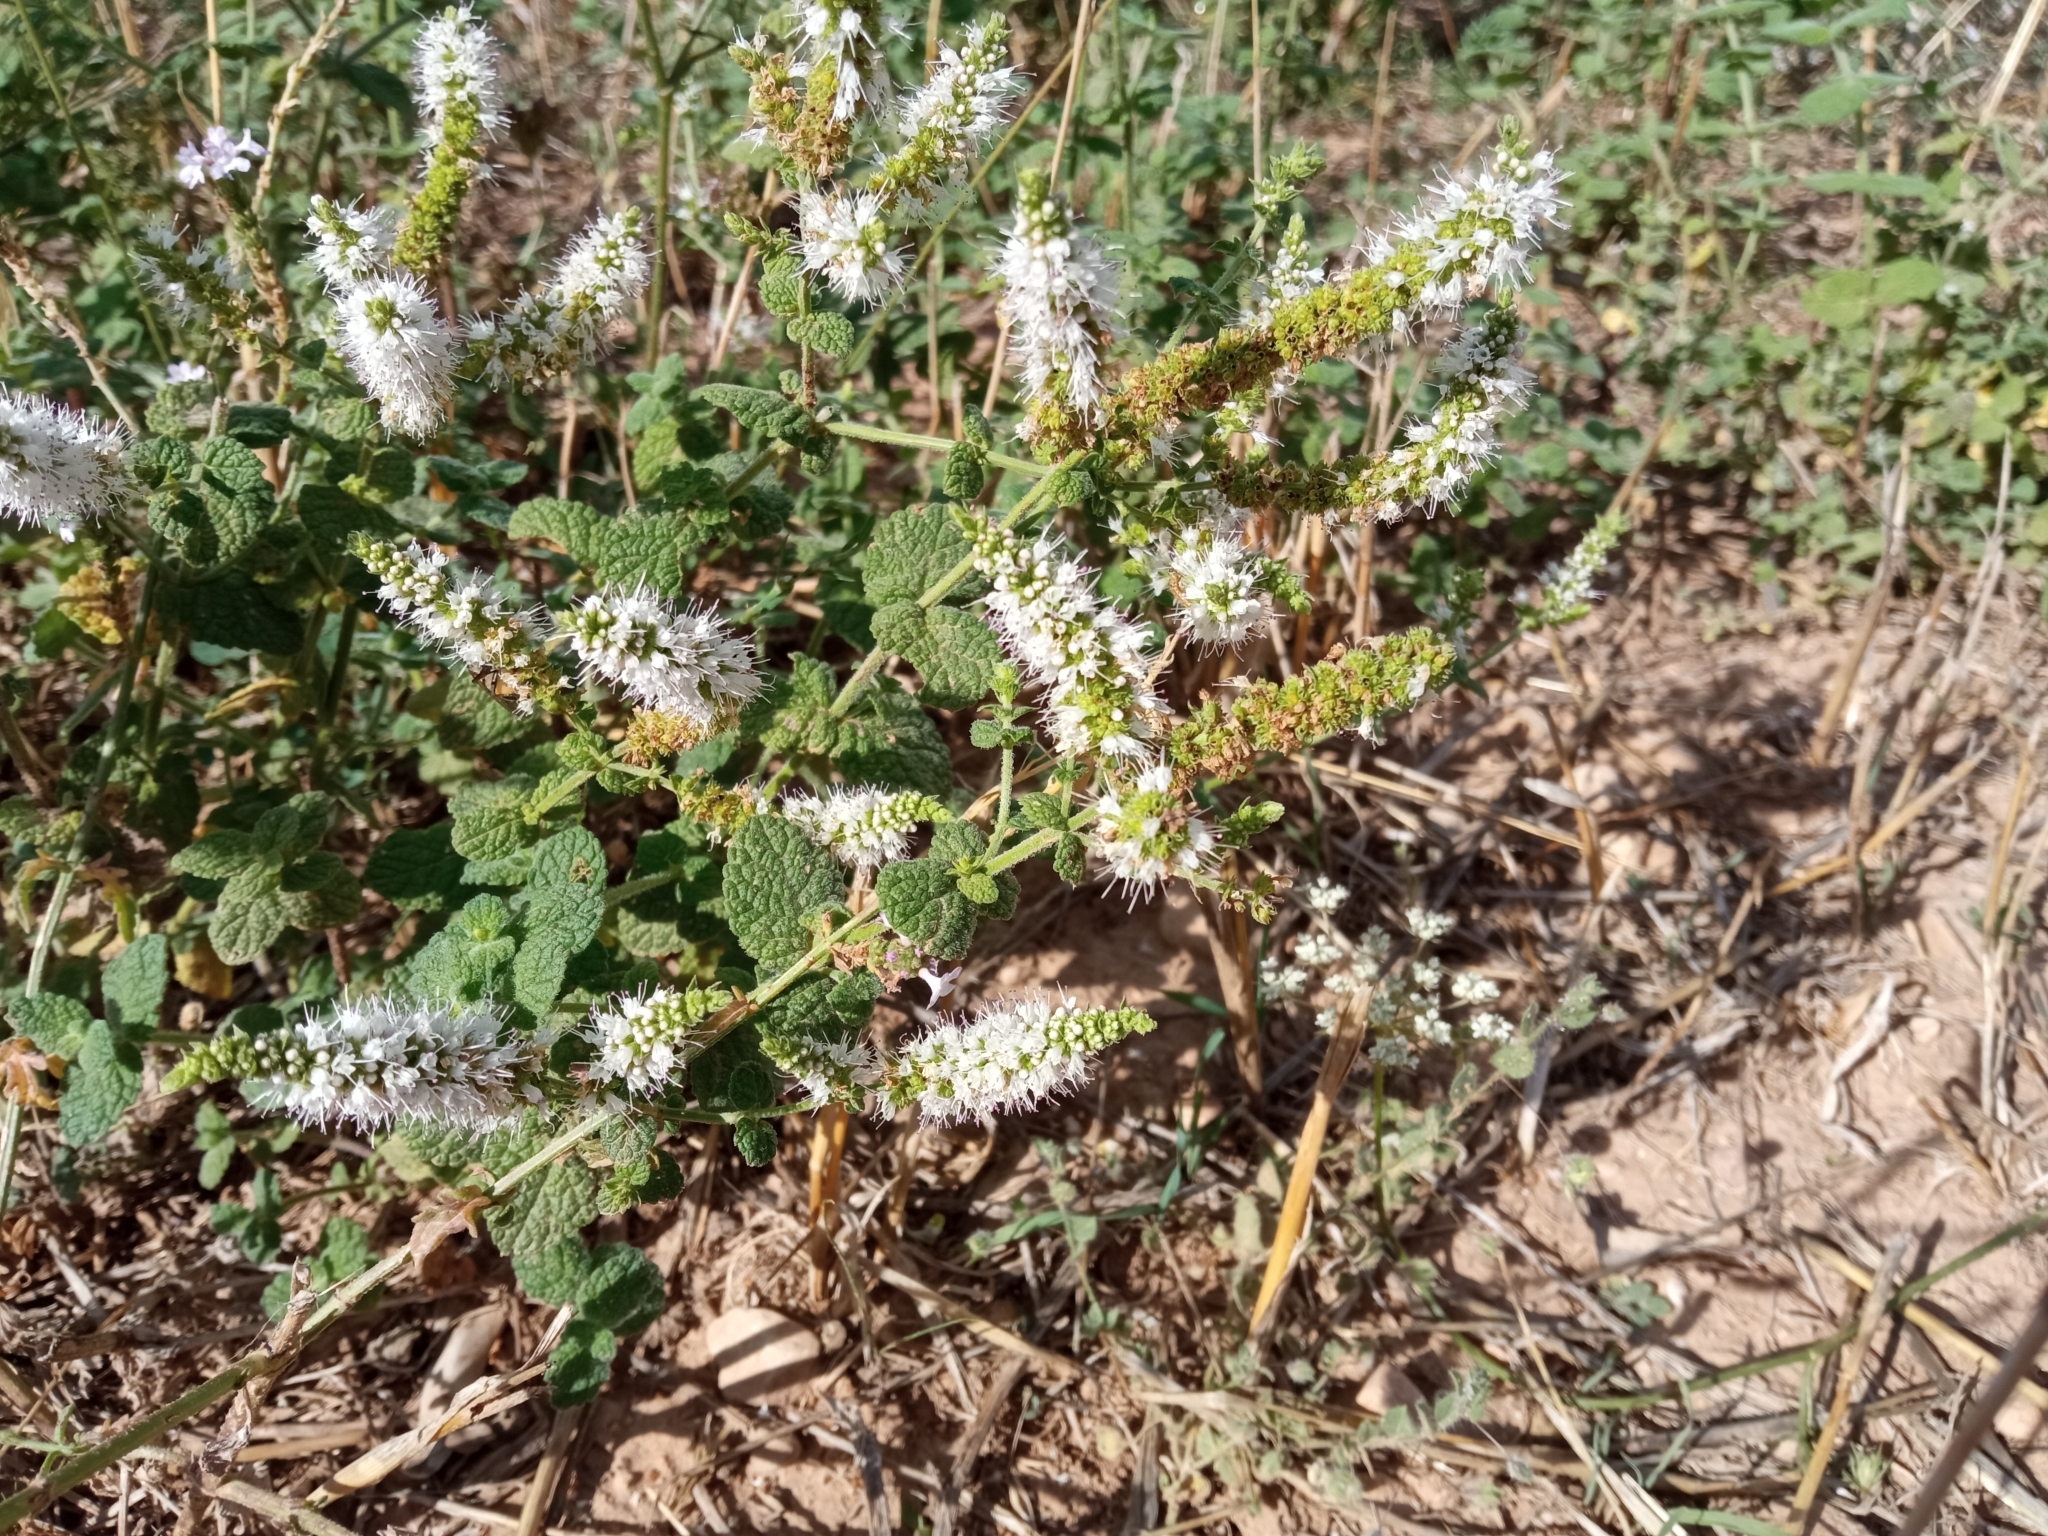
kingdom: Plantae
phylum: Tracheophyta
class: Magnoliopsida
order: Lamiales
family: Lamiaceae
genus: Mentha
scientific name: Mentha suaveolens
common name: Apple mint
